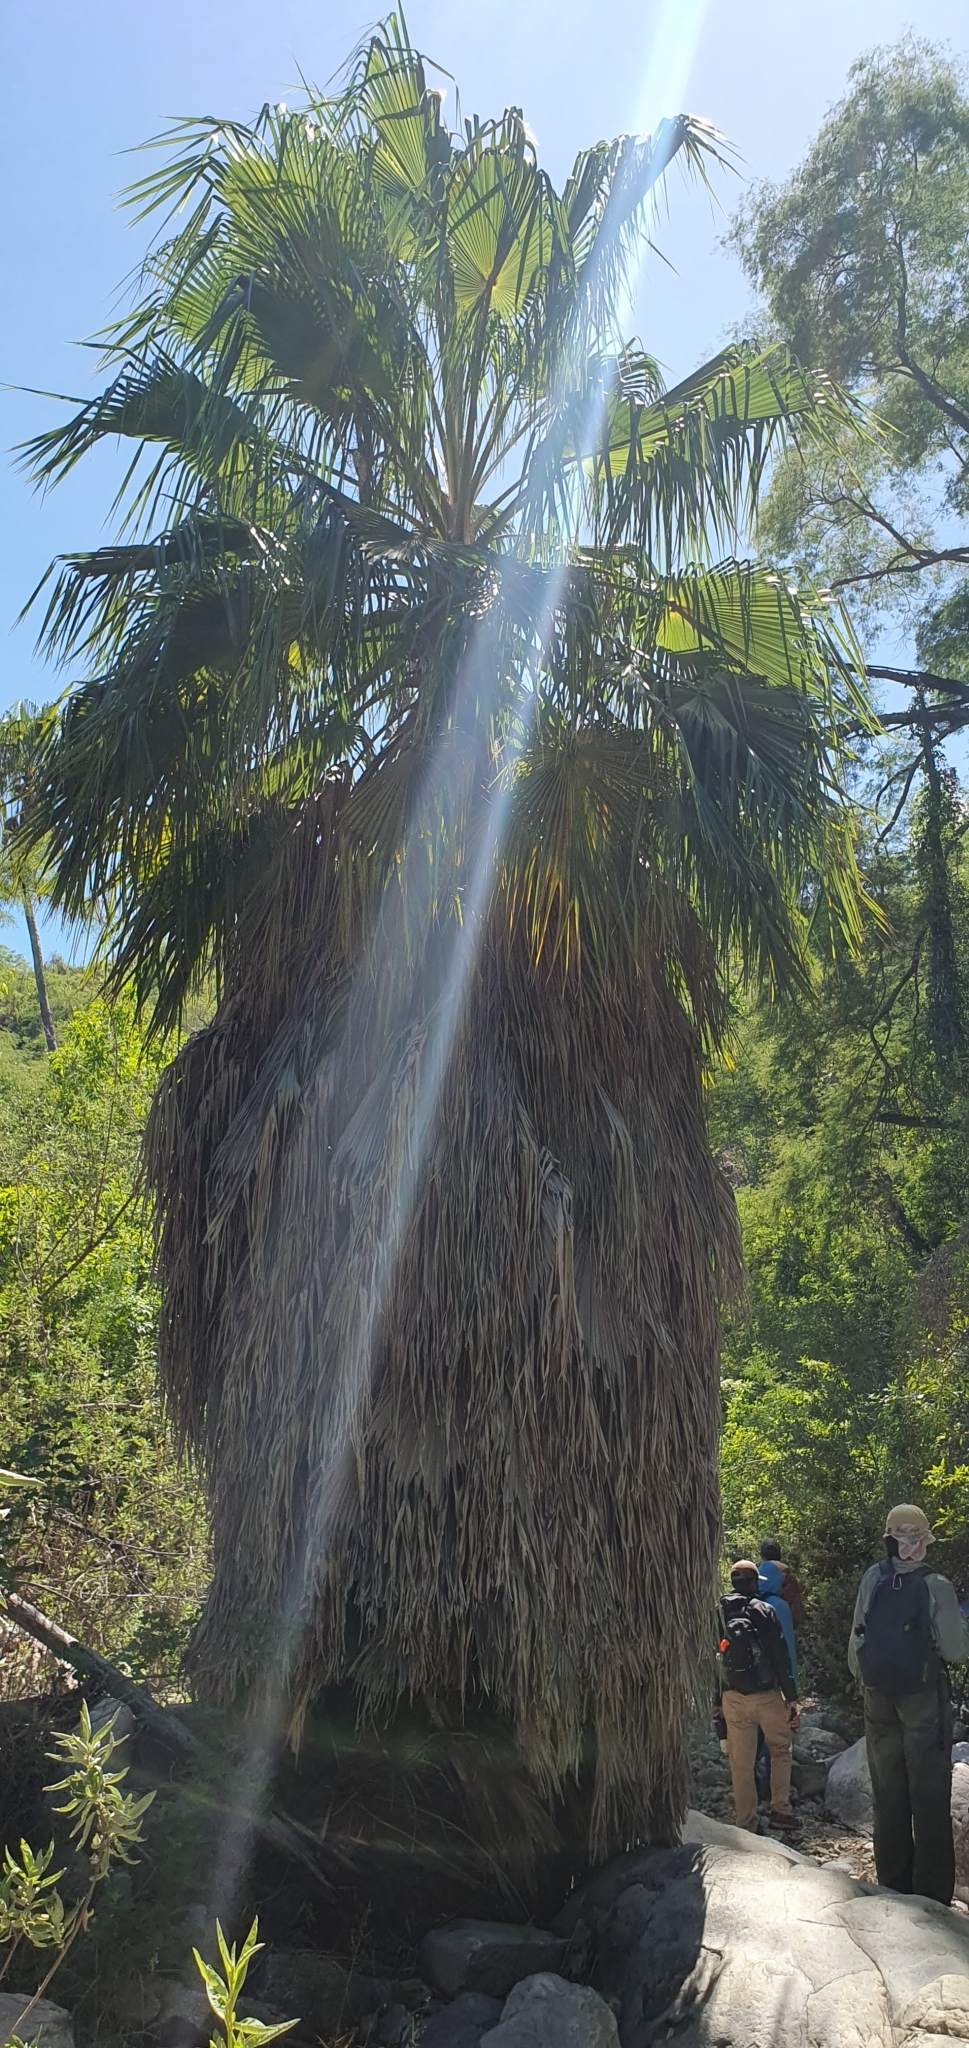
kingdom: Plantae
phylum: Tracheophyta
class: Liliopsida
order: Arecales
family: Arecaceae
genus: Washingtonia
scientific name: Washingtonia robusta
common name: Mexican fan palm
